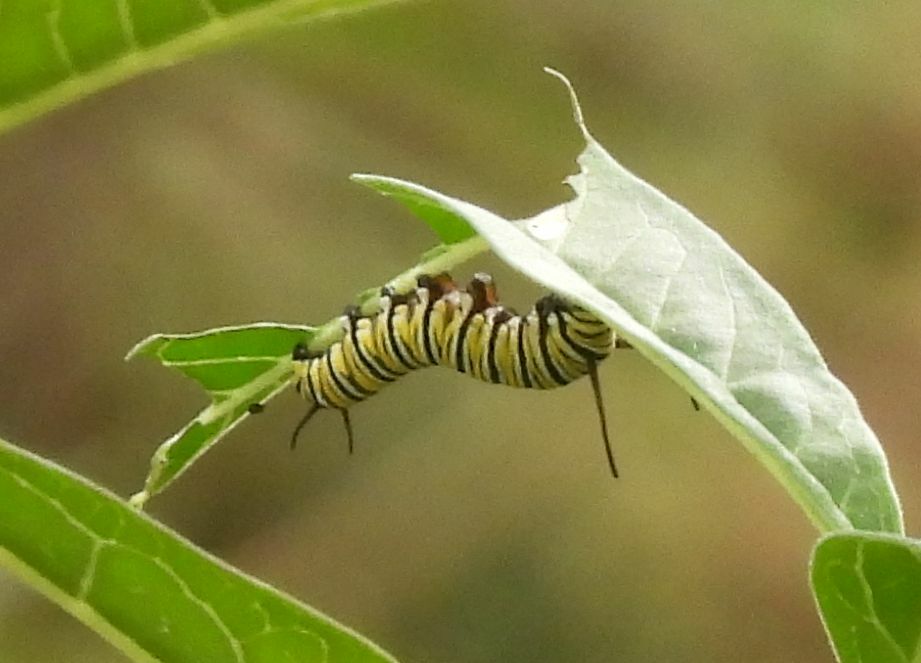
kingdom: Animalia
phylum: Arthropoda
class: Insecta
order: Lepidoptera
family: Nymphalidae
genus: Danaus
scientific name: Danaus plexippus
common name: Monarch
